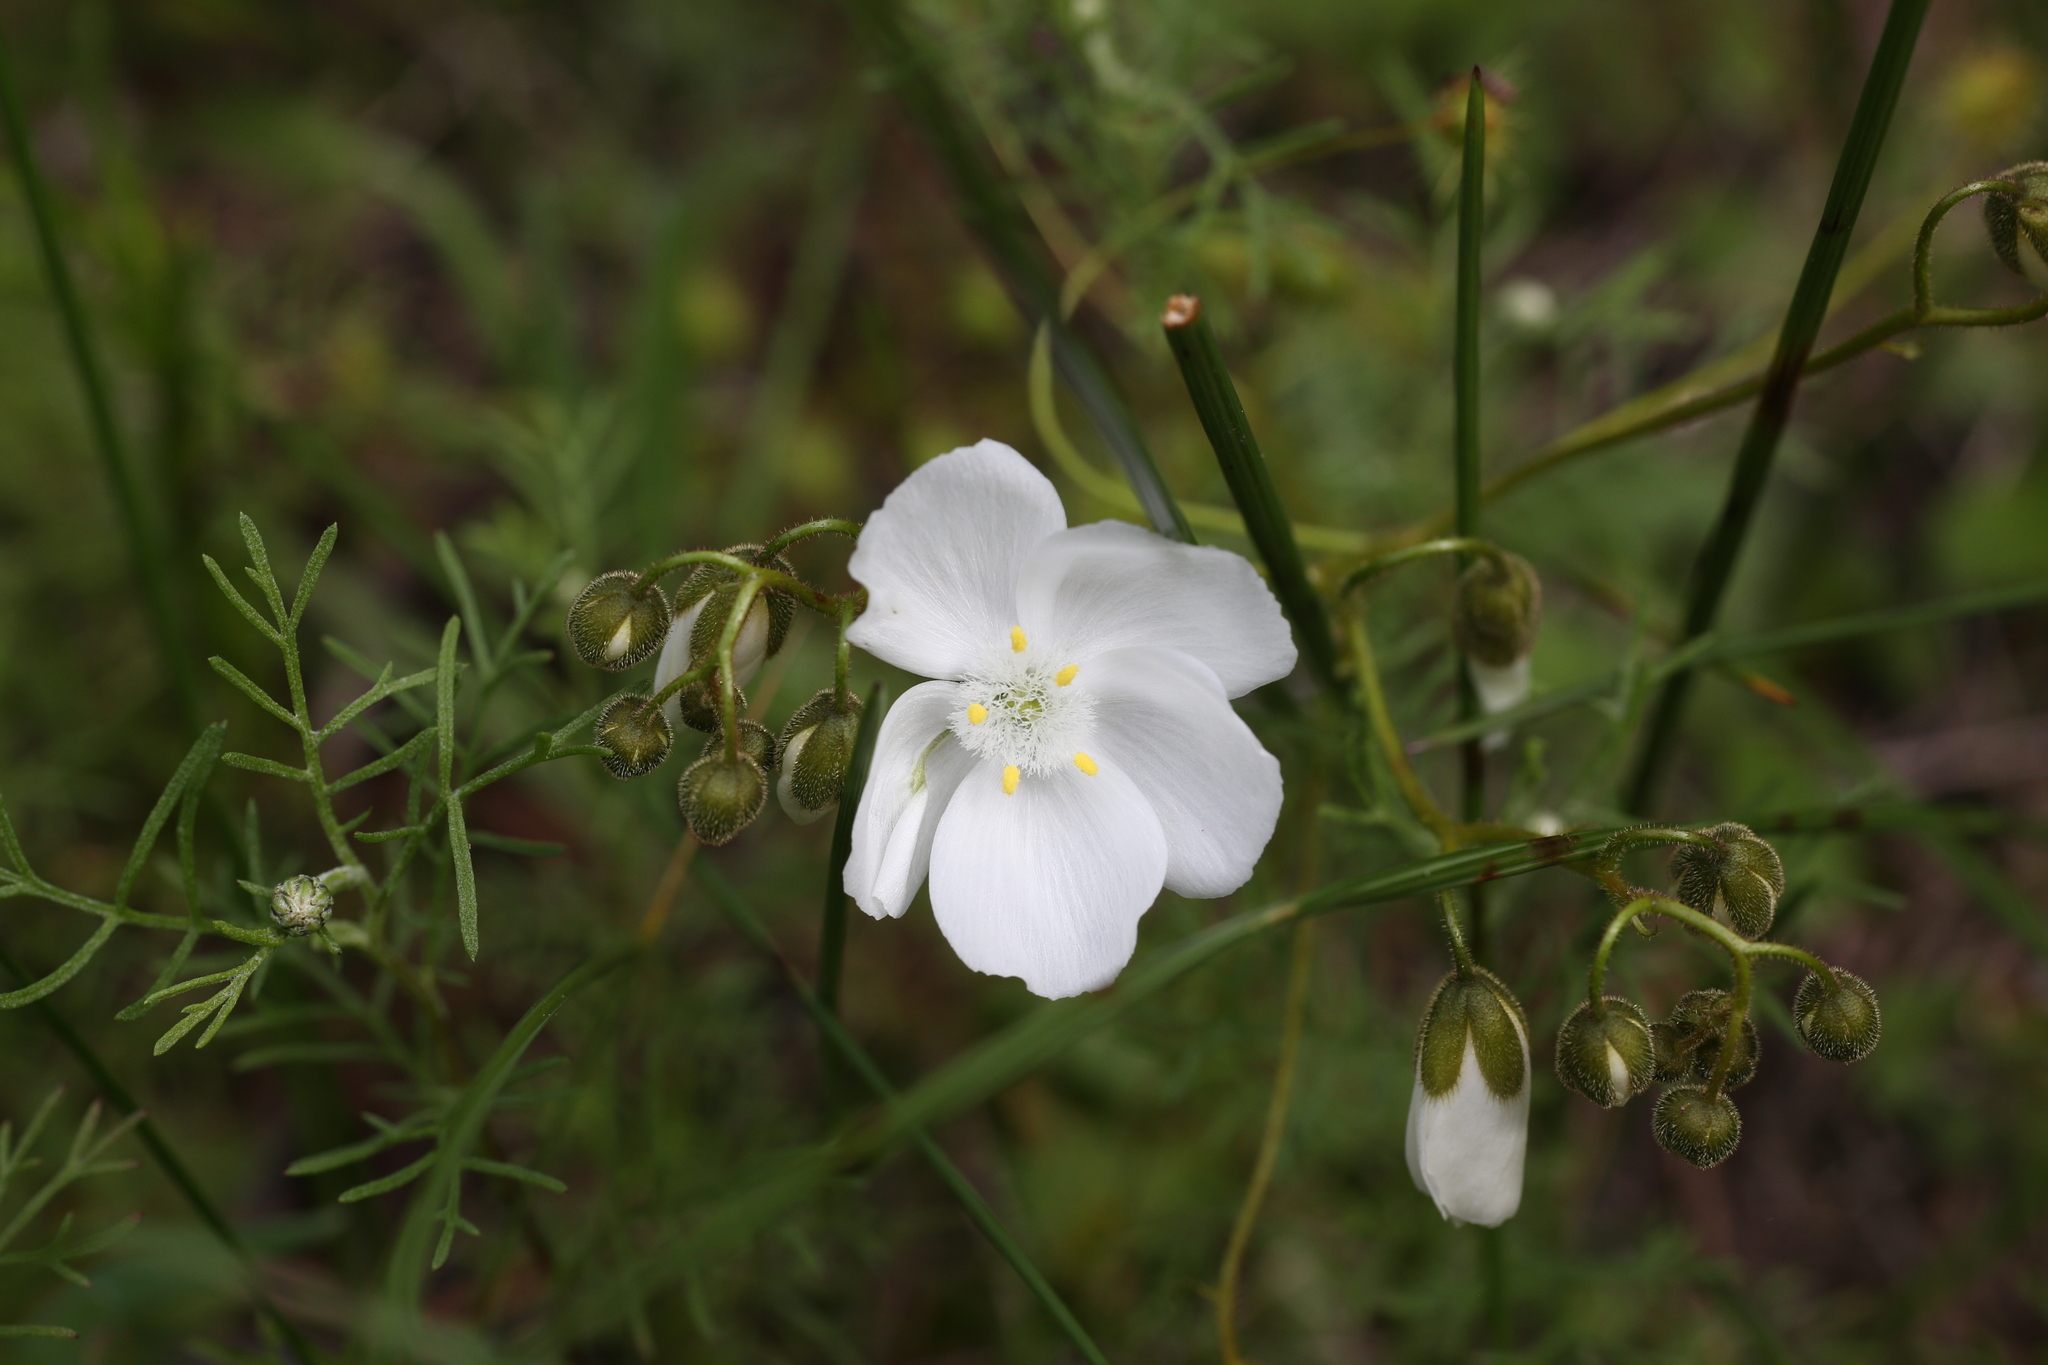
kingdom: Plantae
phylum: Tracheophyta
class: Magnoliopsida
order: Caryophyllales
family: Droseraceae
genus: Drosera
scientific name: Drosera macrantha
